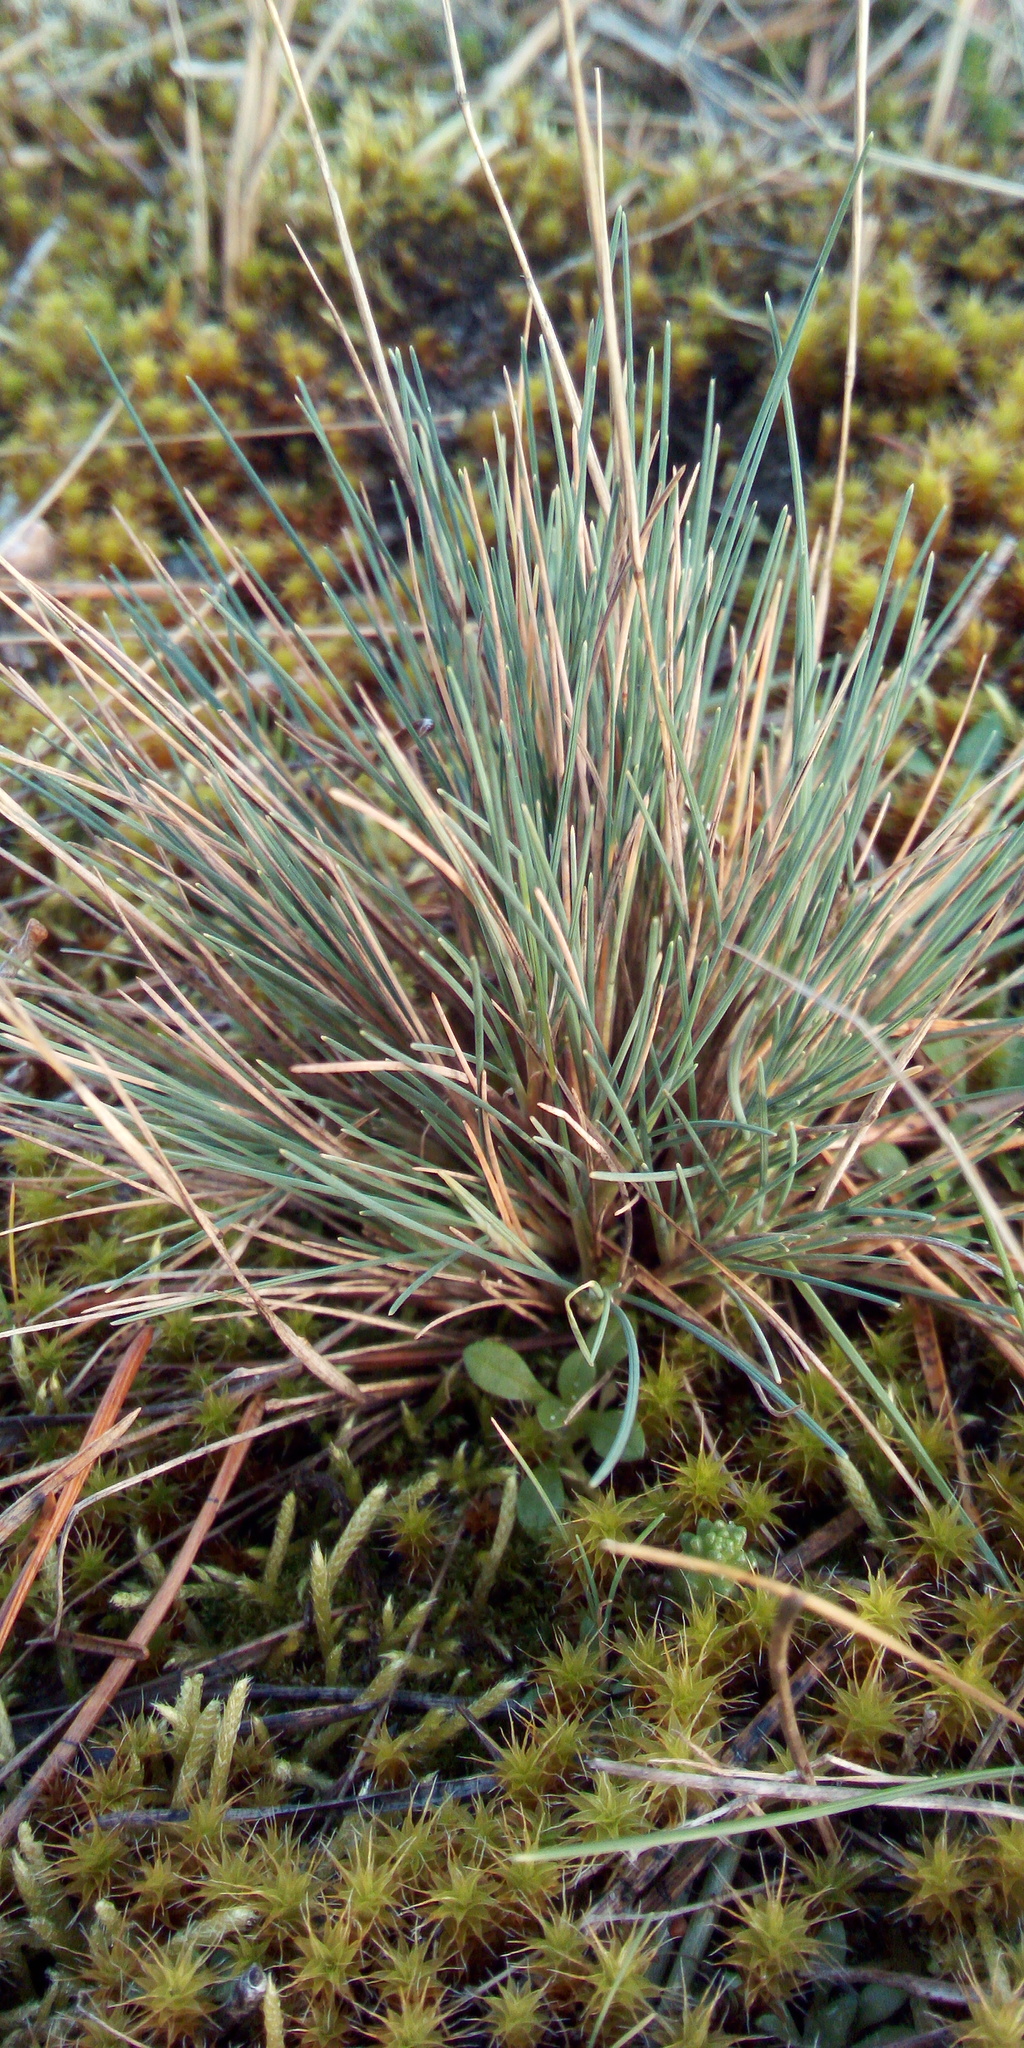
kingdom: Plantae
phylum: Tracheophyta
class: Liliopsida
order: Poales
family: Poaceae
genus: Corynephorus
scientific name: Corynephorus canescens
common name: Grey hair-grass
